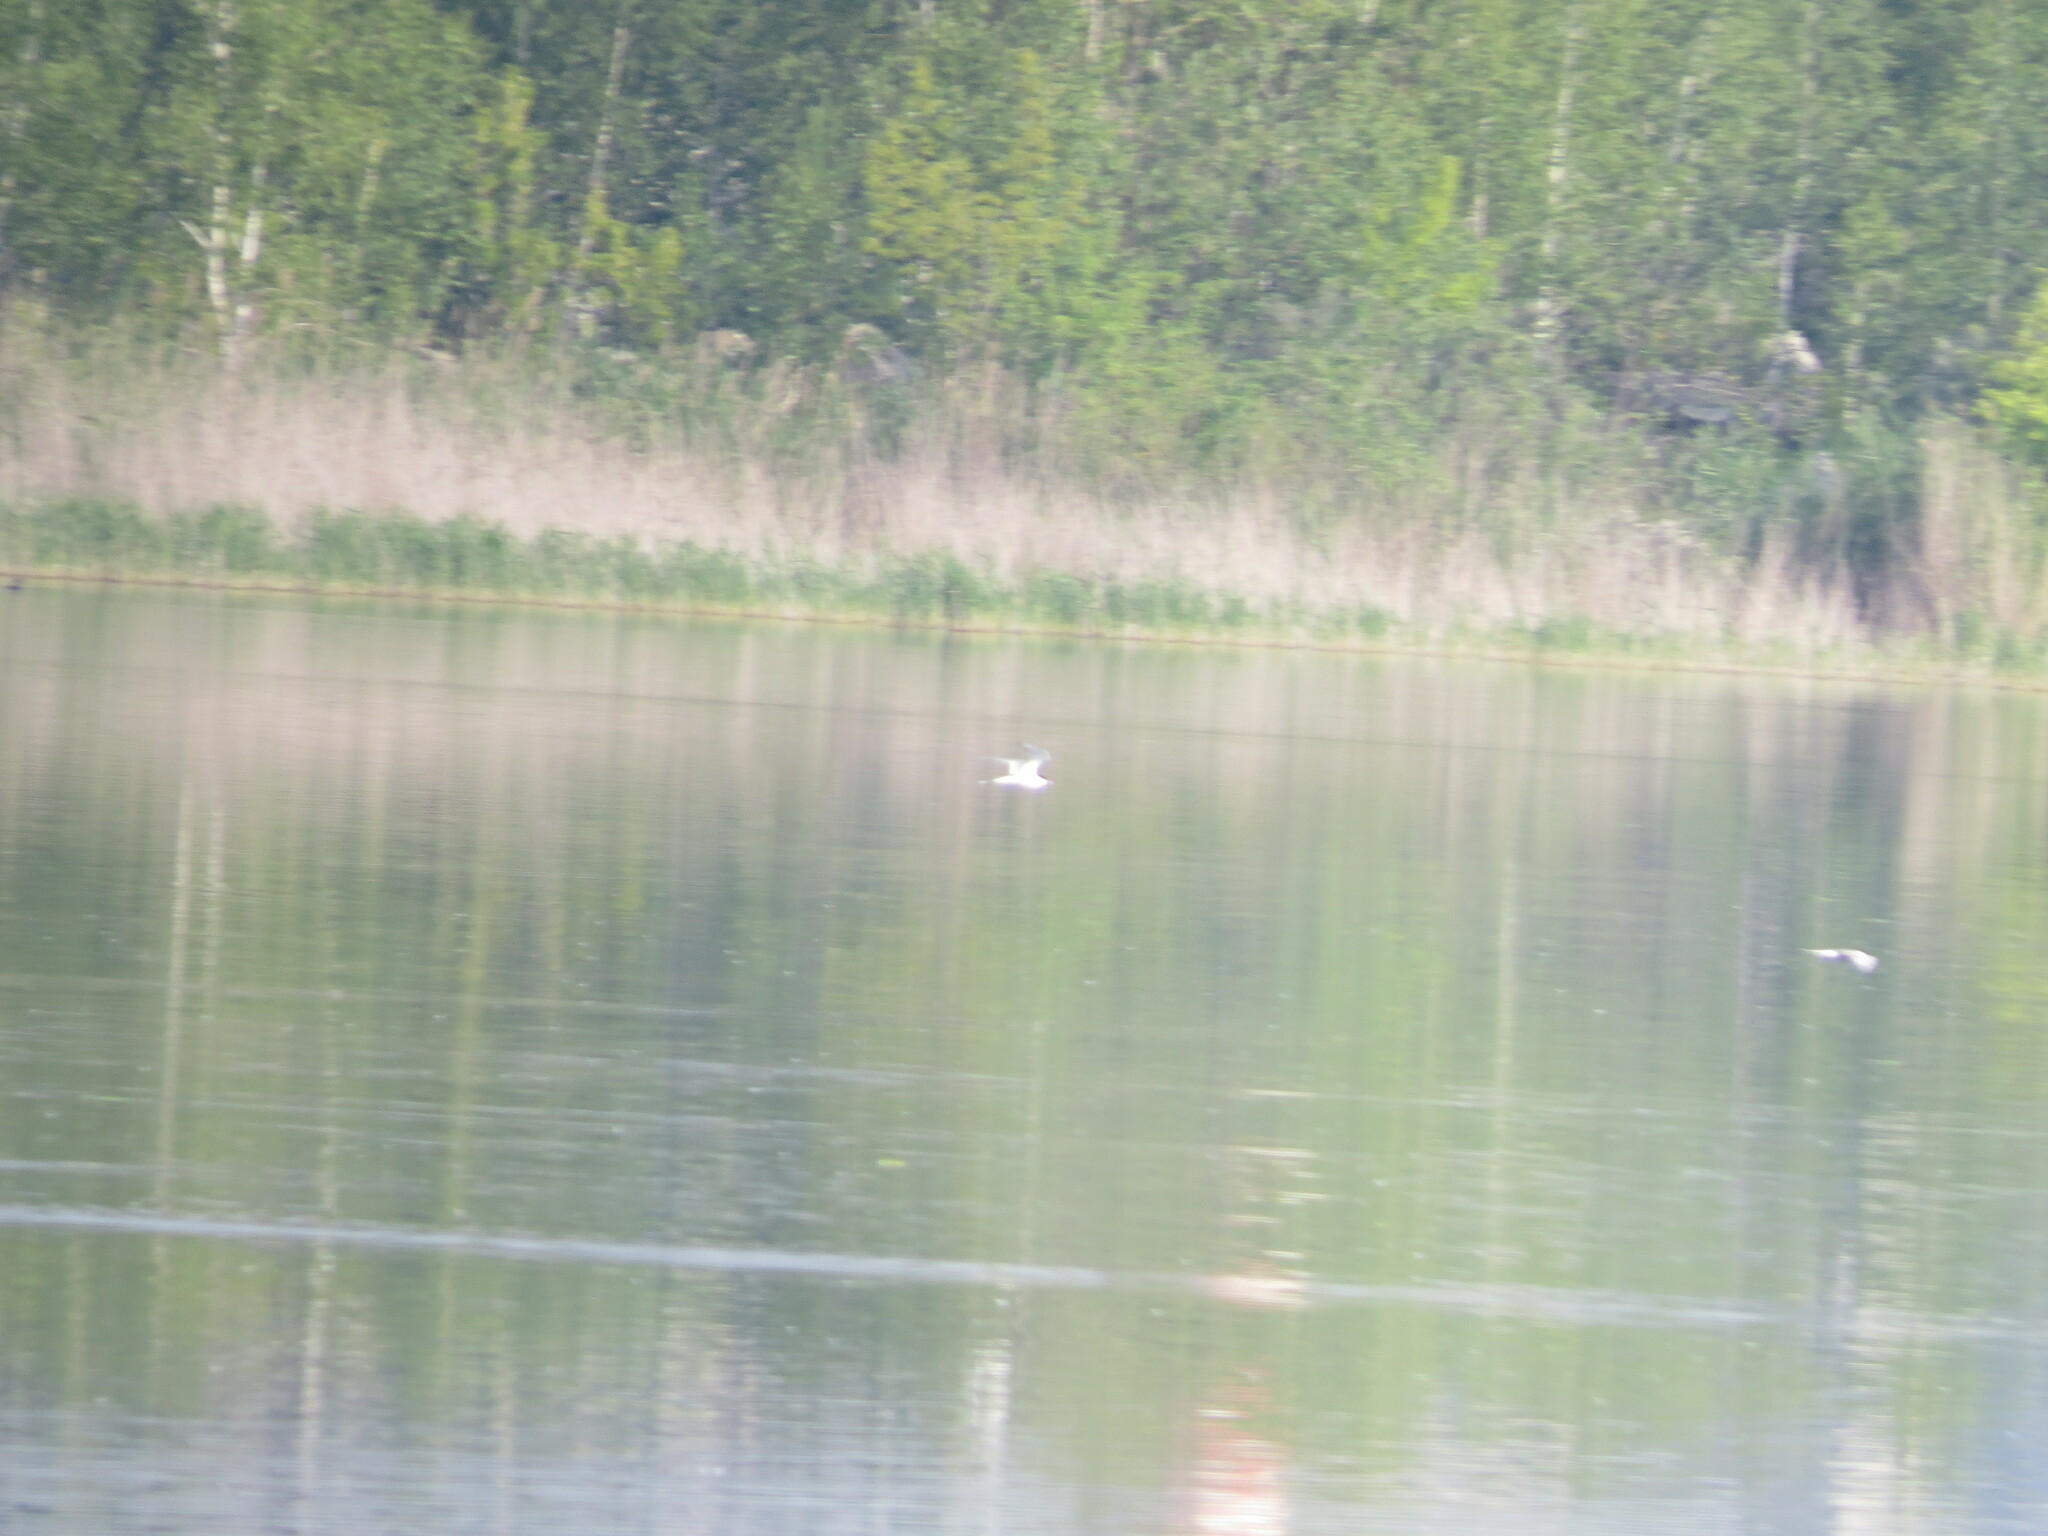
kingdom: Animalia
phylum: Chordata
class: Aves
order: Charadriiformes
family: Laridae
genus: Sterna
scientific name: Sterna hirundo
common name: Common tern
